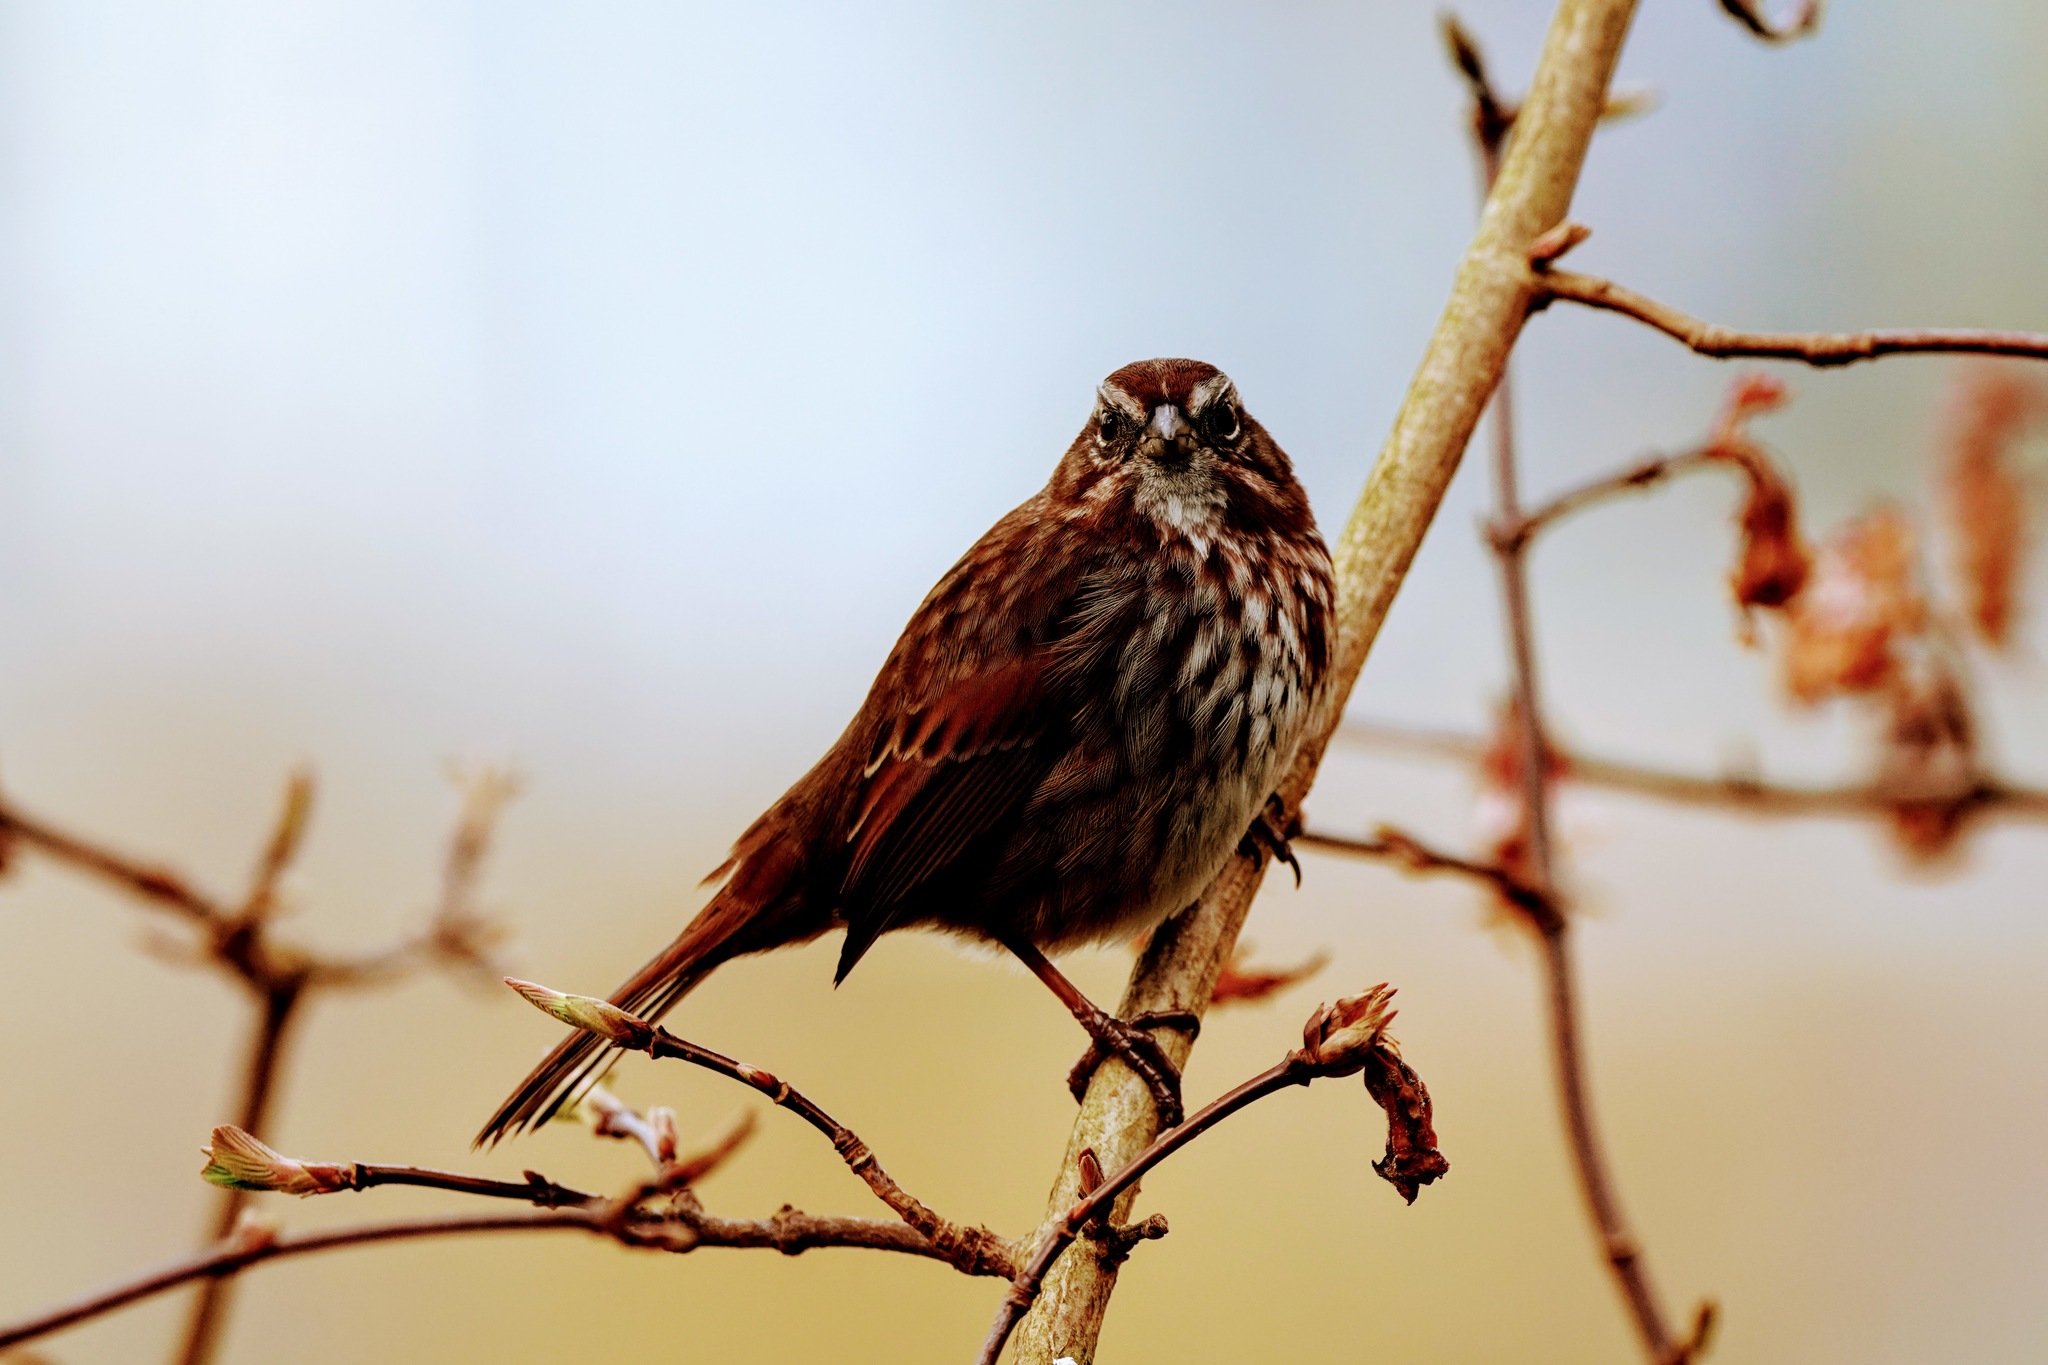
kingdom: Animalia
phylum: Chordata
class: Aves
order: Passeriformes
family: Passerellidae
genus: Melospiza
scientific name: Melospiza melodia
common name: Song sparrow
